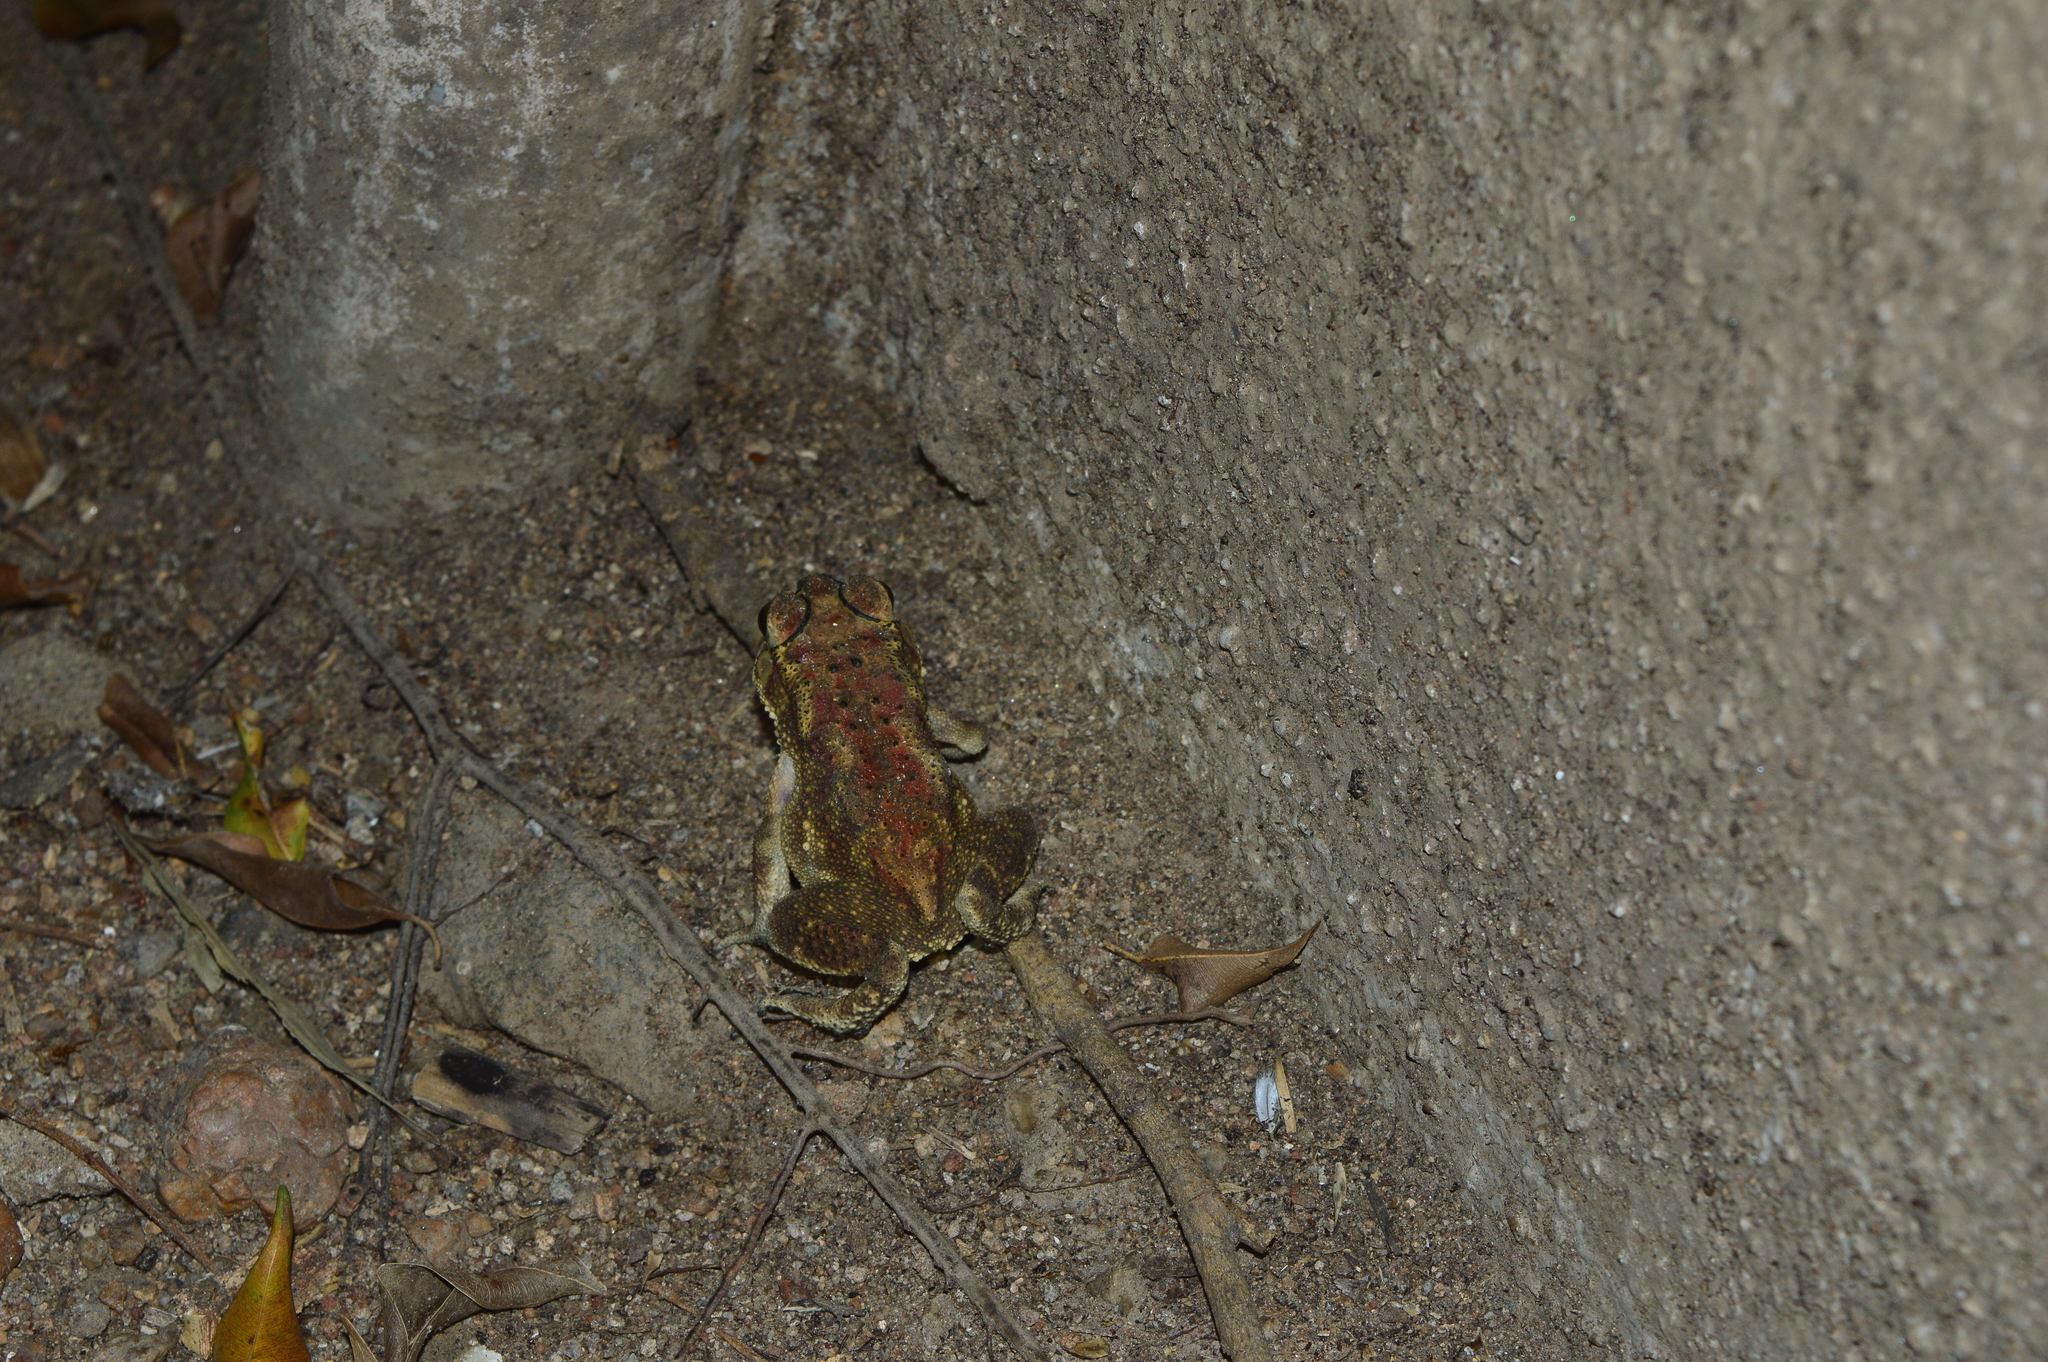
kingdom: Animalia
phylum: Chordata
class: Amphibia
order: Anura
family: Bufonidae
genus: Duttaphrynus
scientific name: Duttaphrynus melanostictus
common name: Common sunda toad
